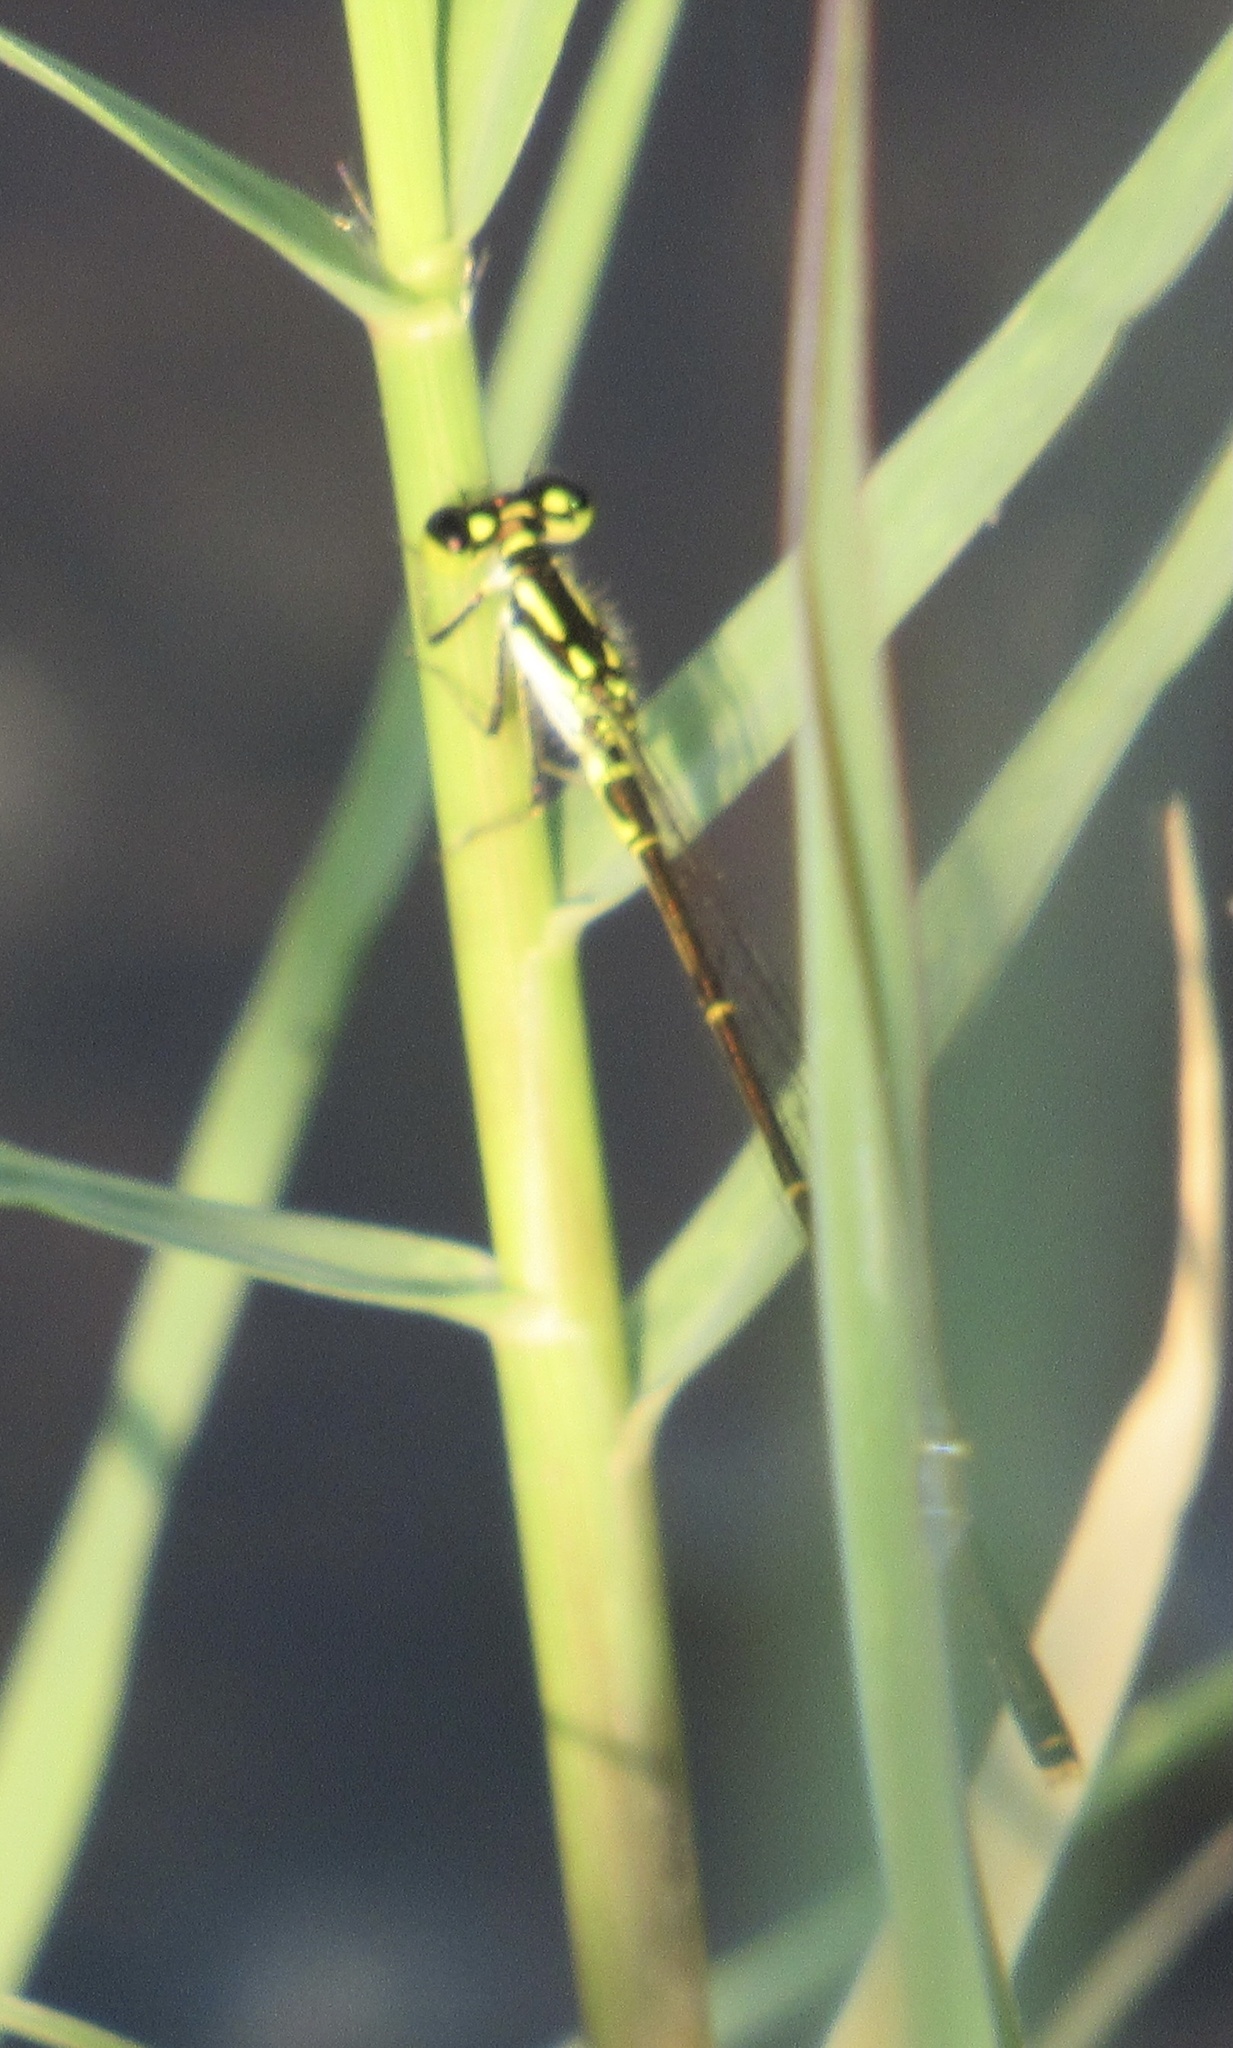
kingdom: Animalia
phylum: Arthropoda
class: Insecta
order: Odonata
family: Coenagrionidae
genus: Ischnura
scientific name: Ischnura posita
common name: Fragile forktail
